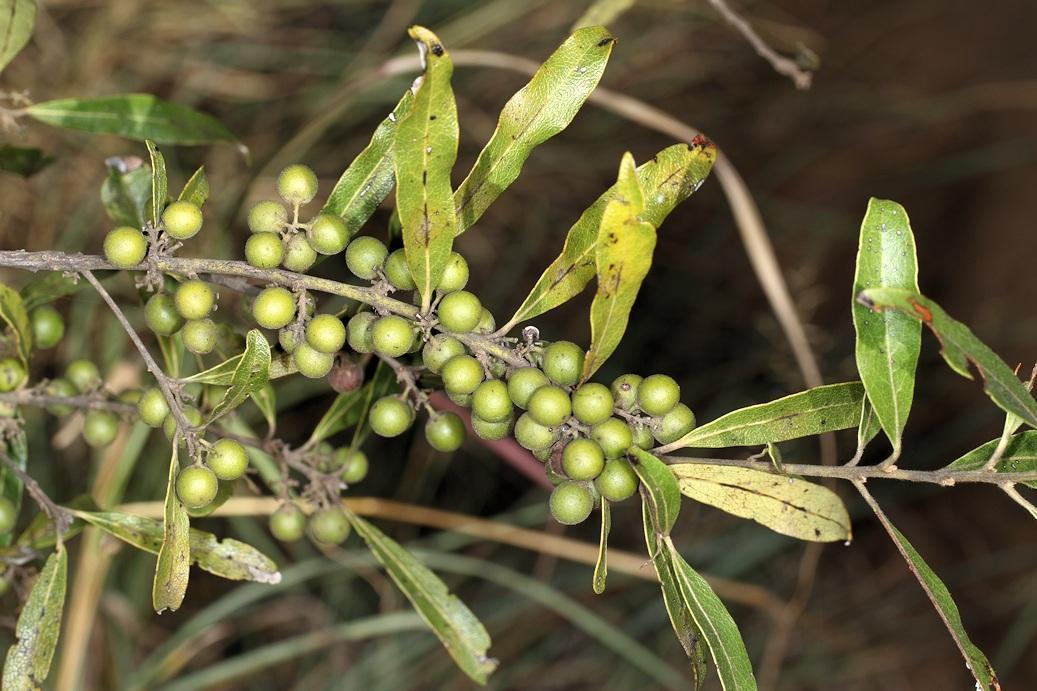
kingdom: Plantae
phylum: Tracheophyta
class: Magnoliopsida
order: Ericales
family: Ebenaceae
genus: Euclea
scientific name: Euclea natalensis
